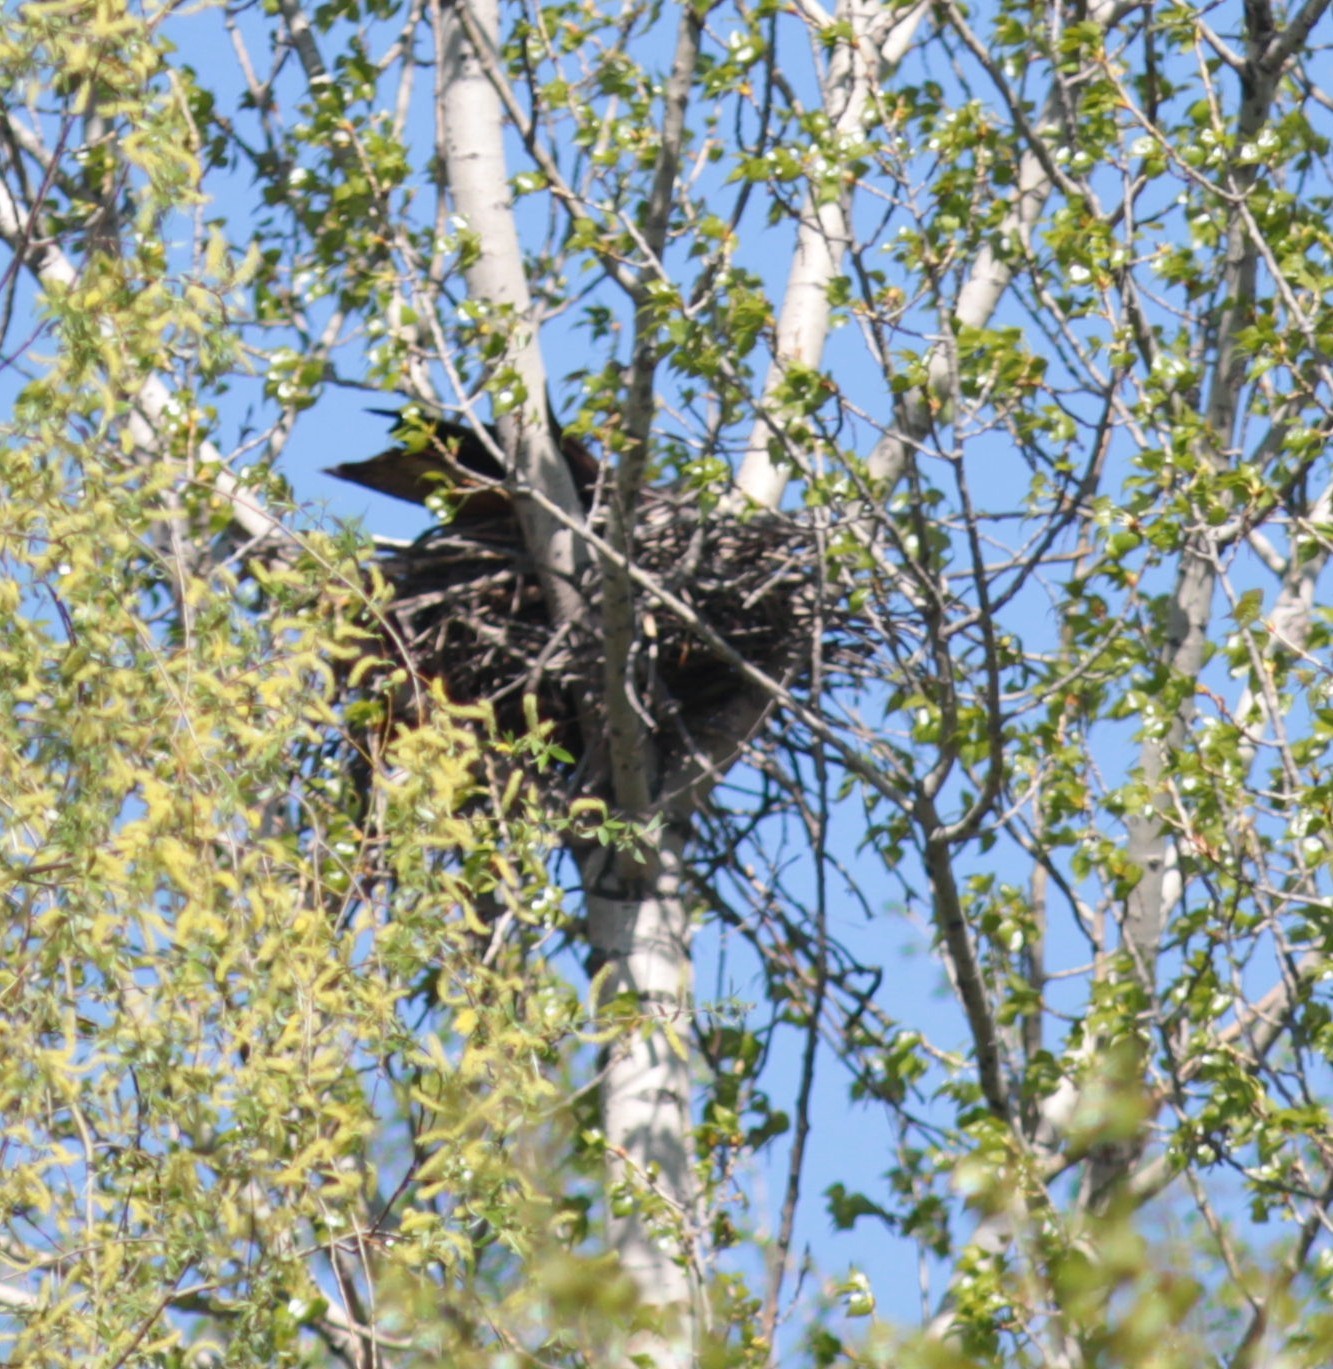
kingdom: Animalia
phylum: Chordata
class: Aves
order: Accipitriformes
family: Accipitridae
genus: Milvus
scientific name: Milvus migrans
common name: Black kite
